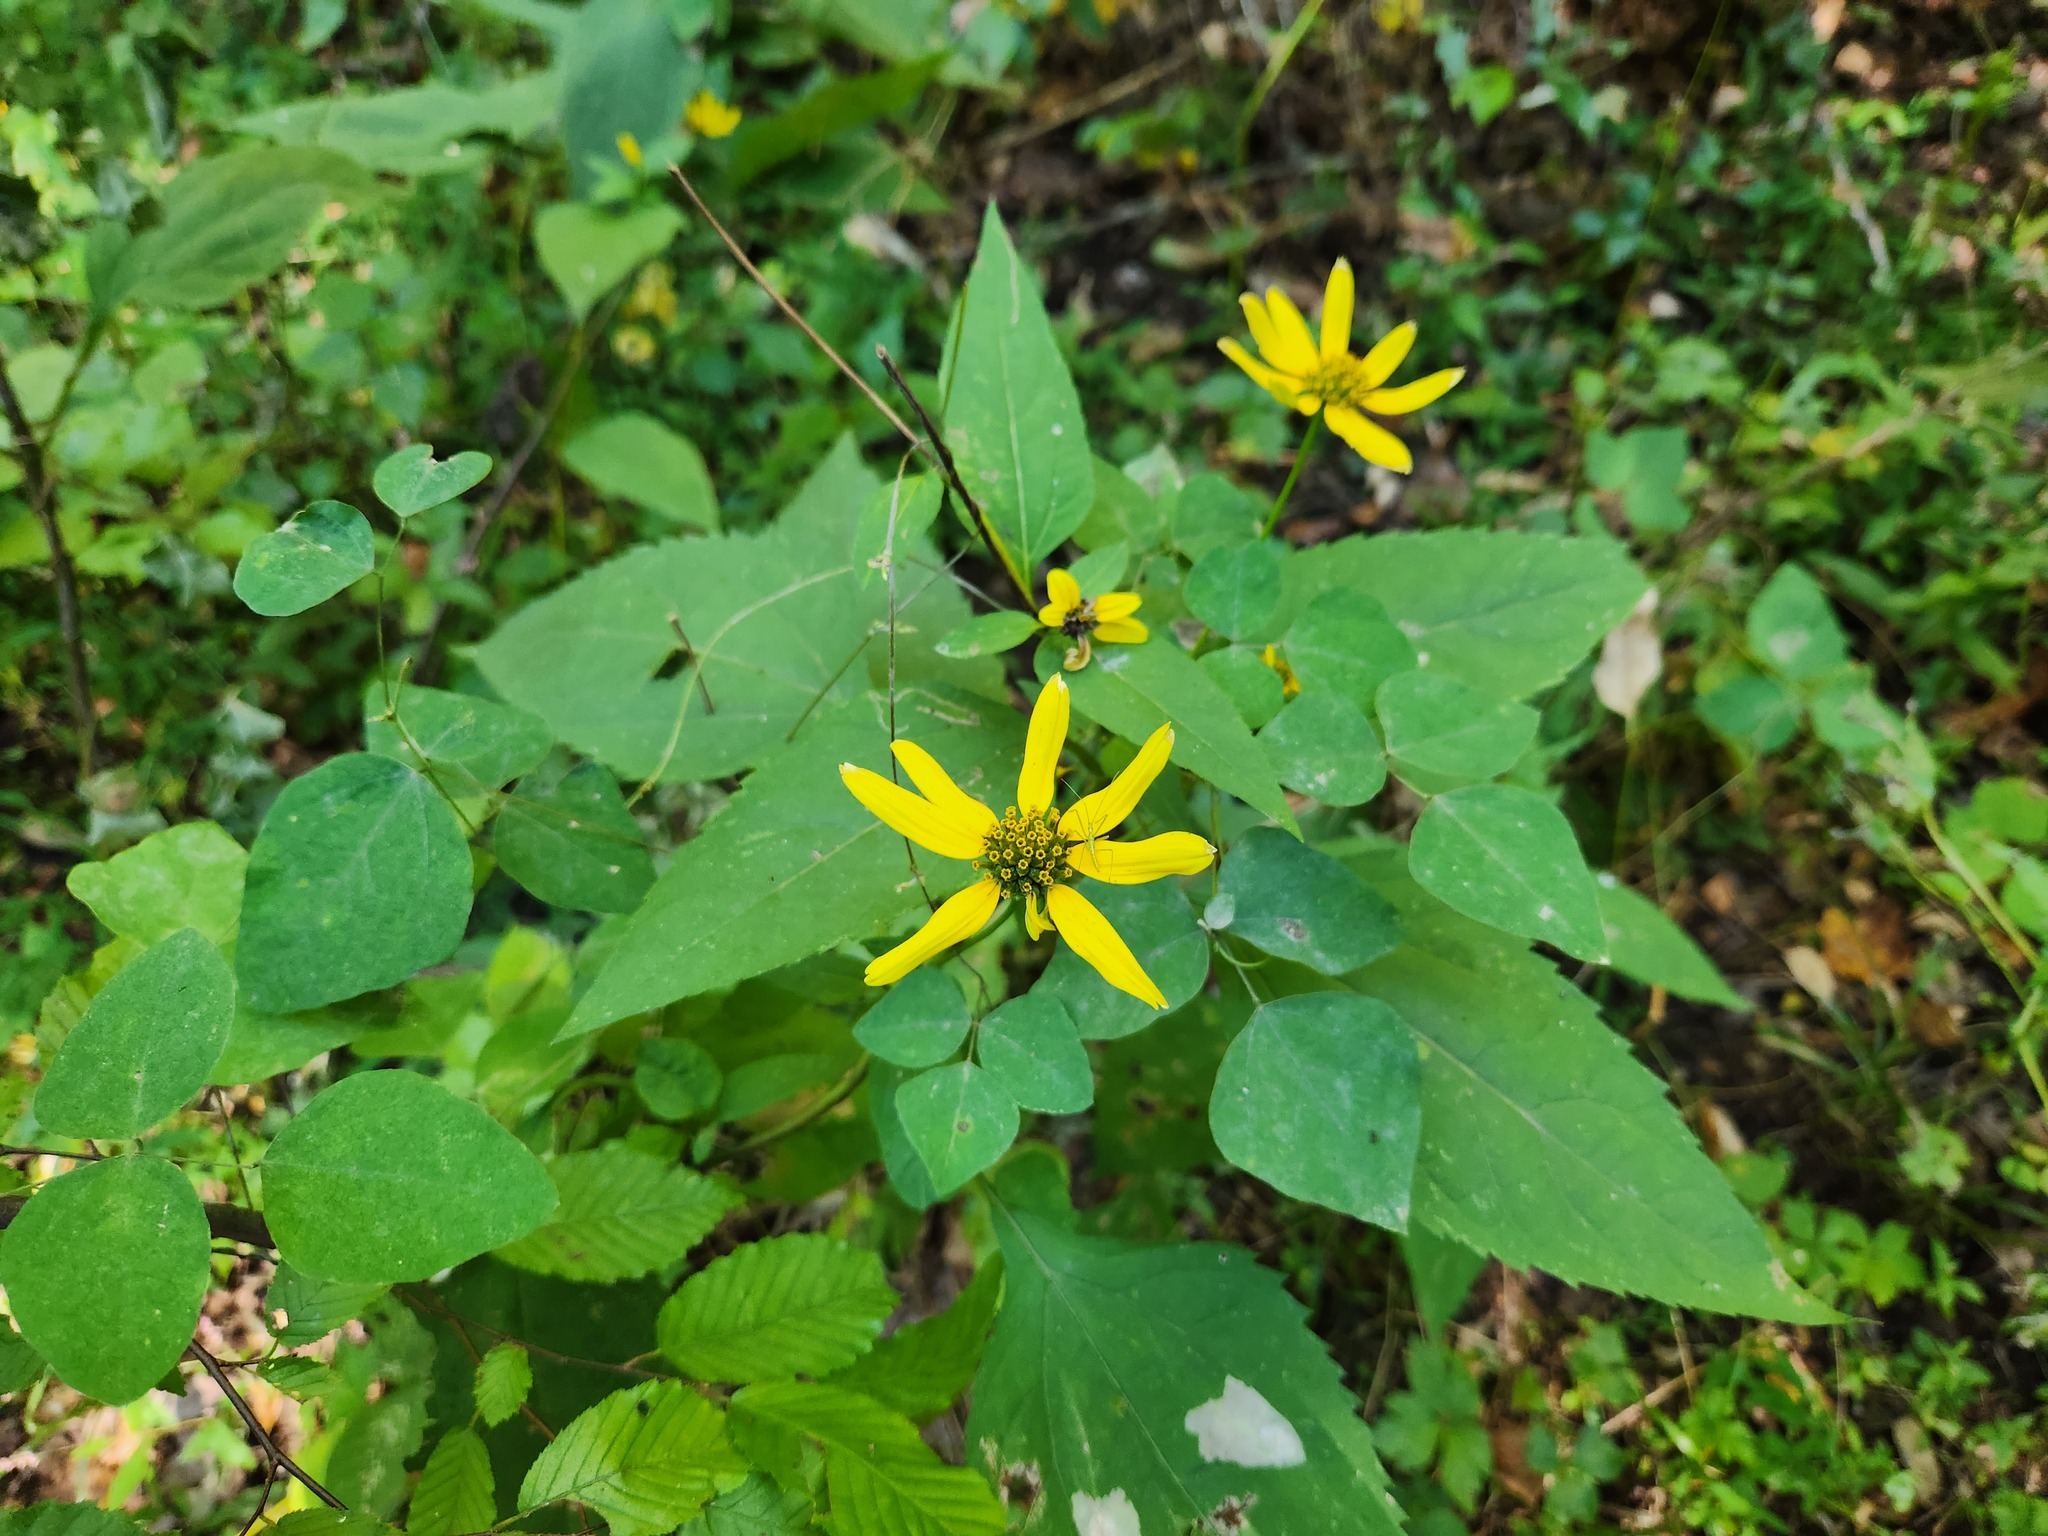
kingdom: Plantae
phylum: Tracheophyta
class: Magnoliopsida
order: Asterales
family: Asteraceae
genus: Helianthus
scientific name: Helianthus decapetalus
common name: Thin-leaved sunflower
